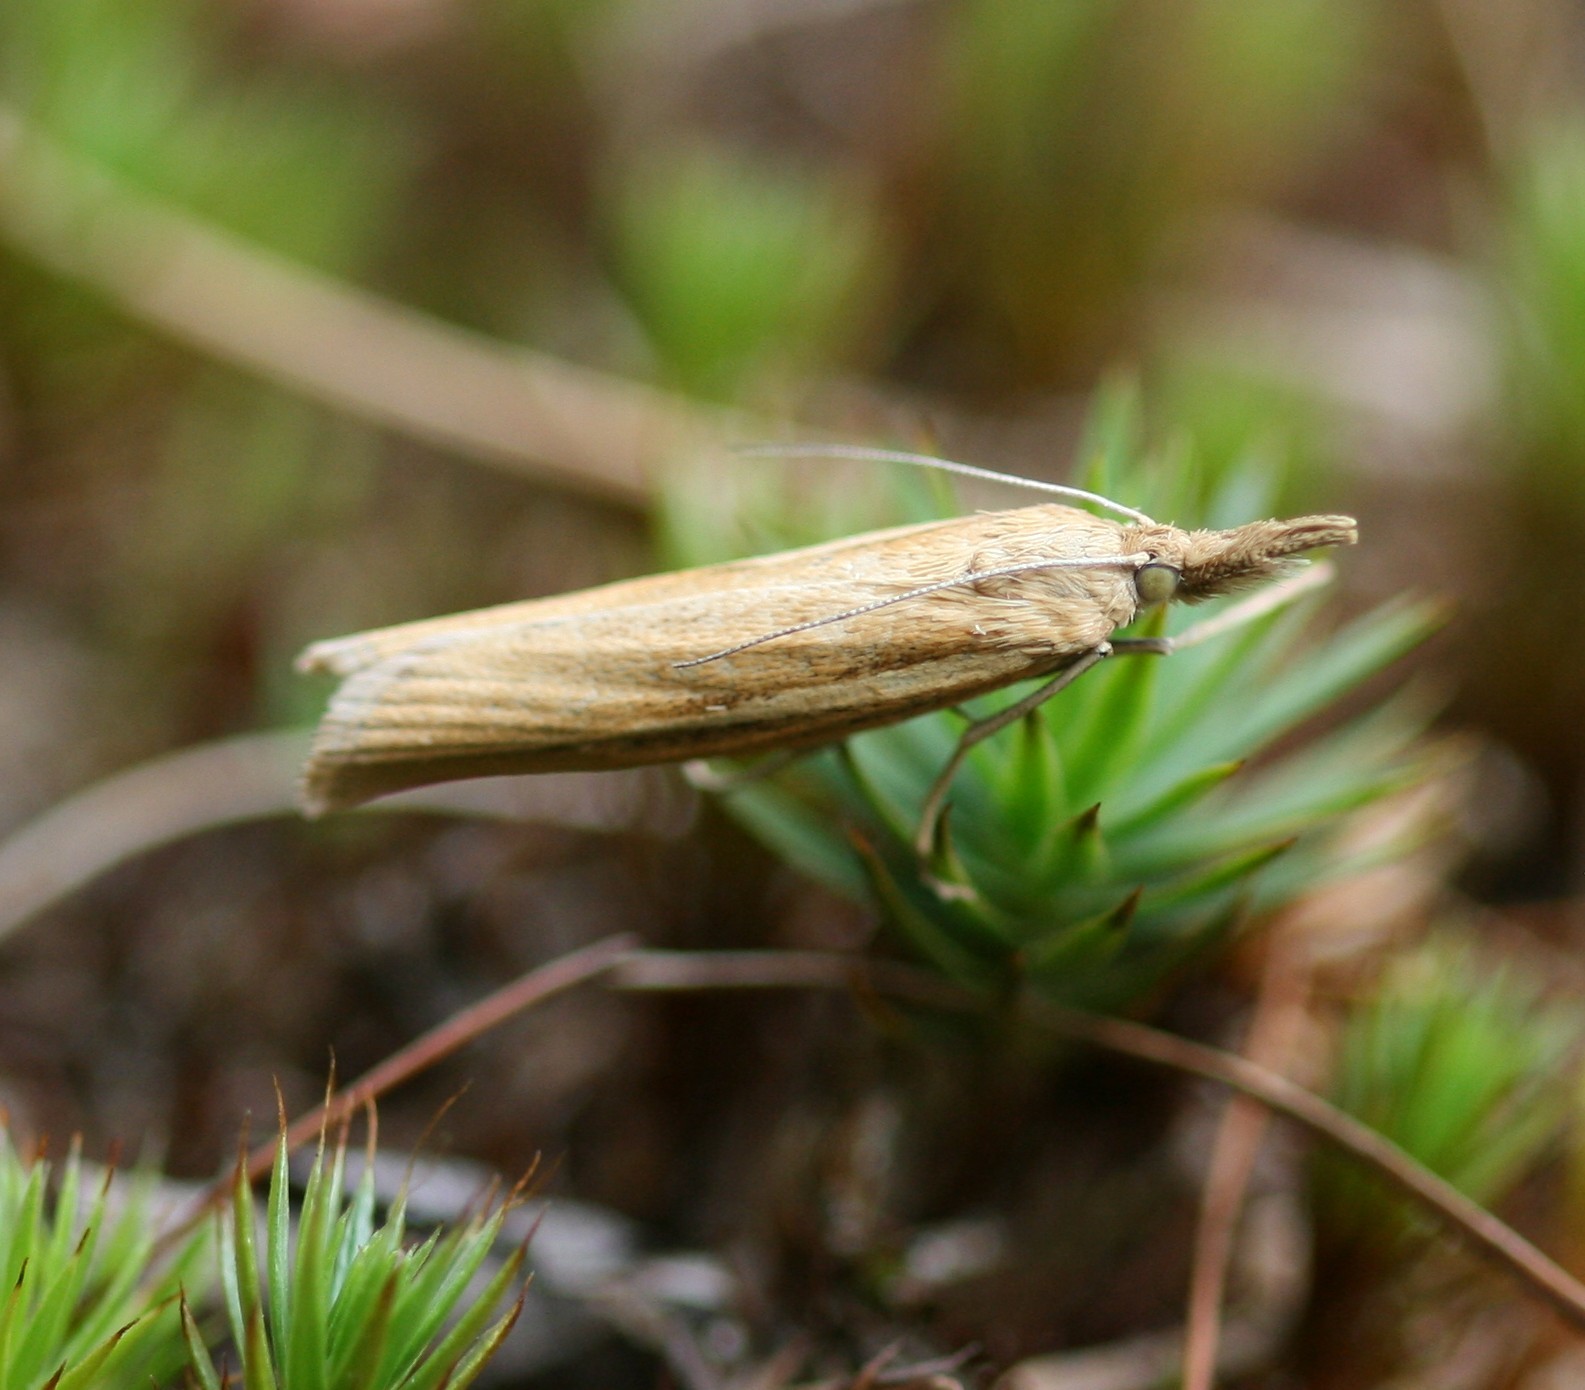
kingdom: Animalia
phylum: Arthropoda
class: Insecta
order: Lepidoptera
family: Crambidae
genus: Agriphila
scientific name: Agriphila tristellus
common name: Common grass-veneer
